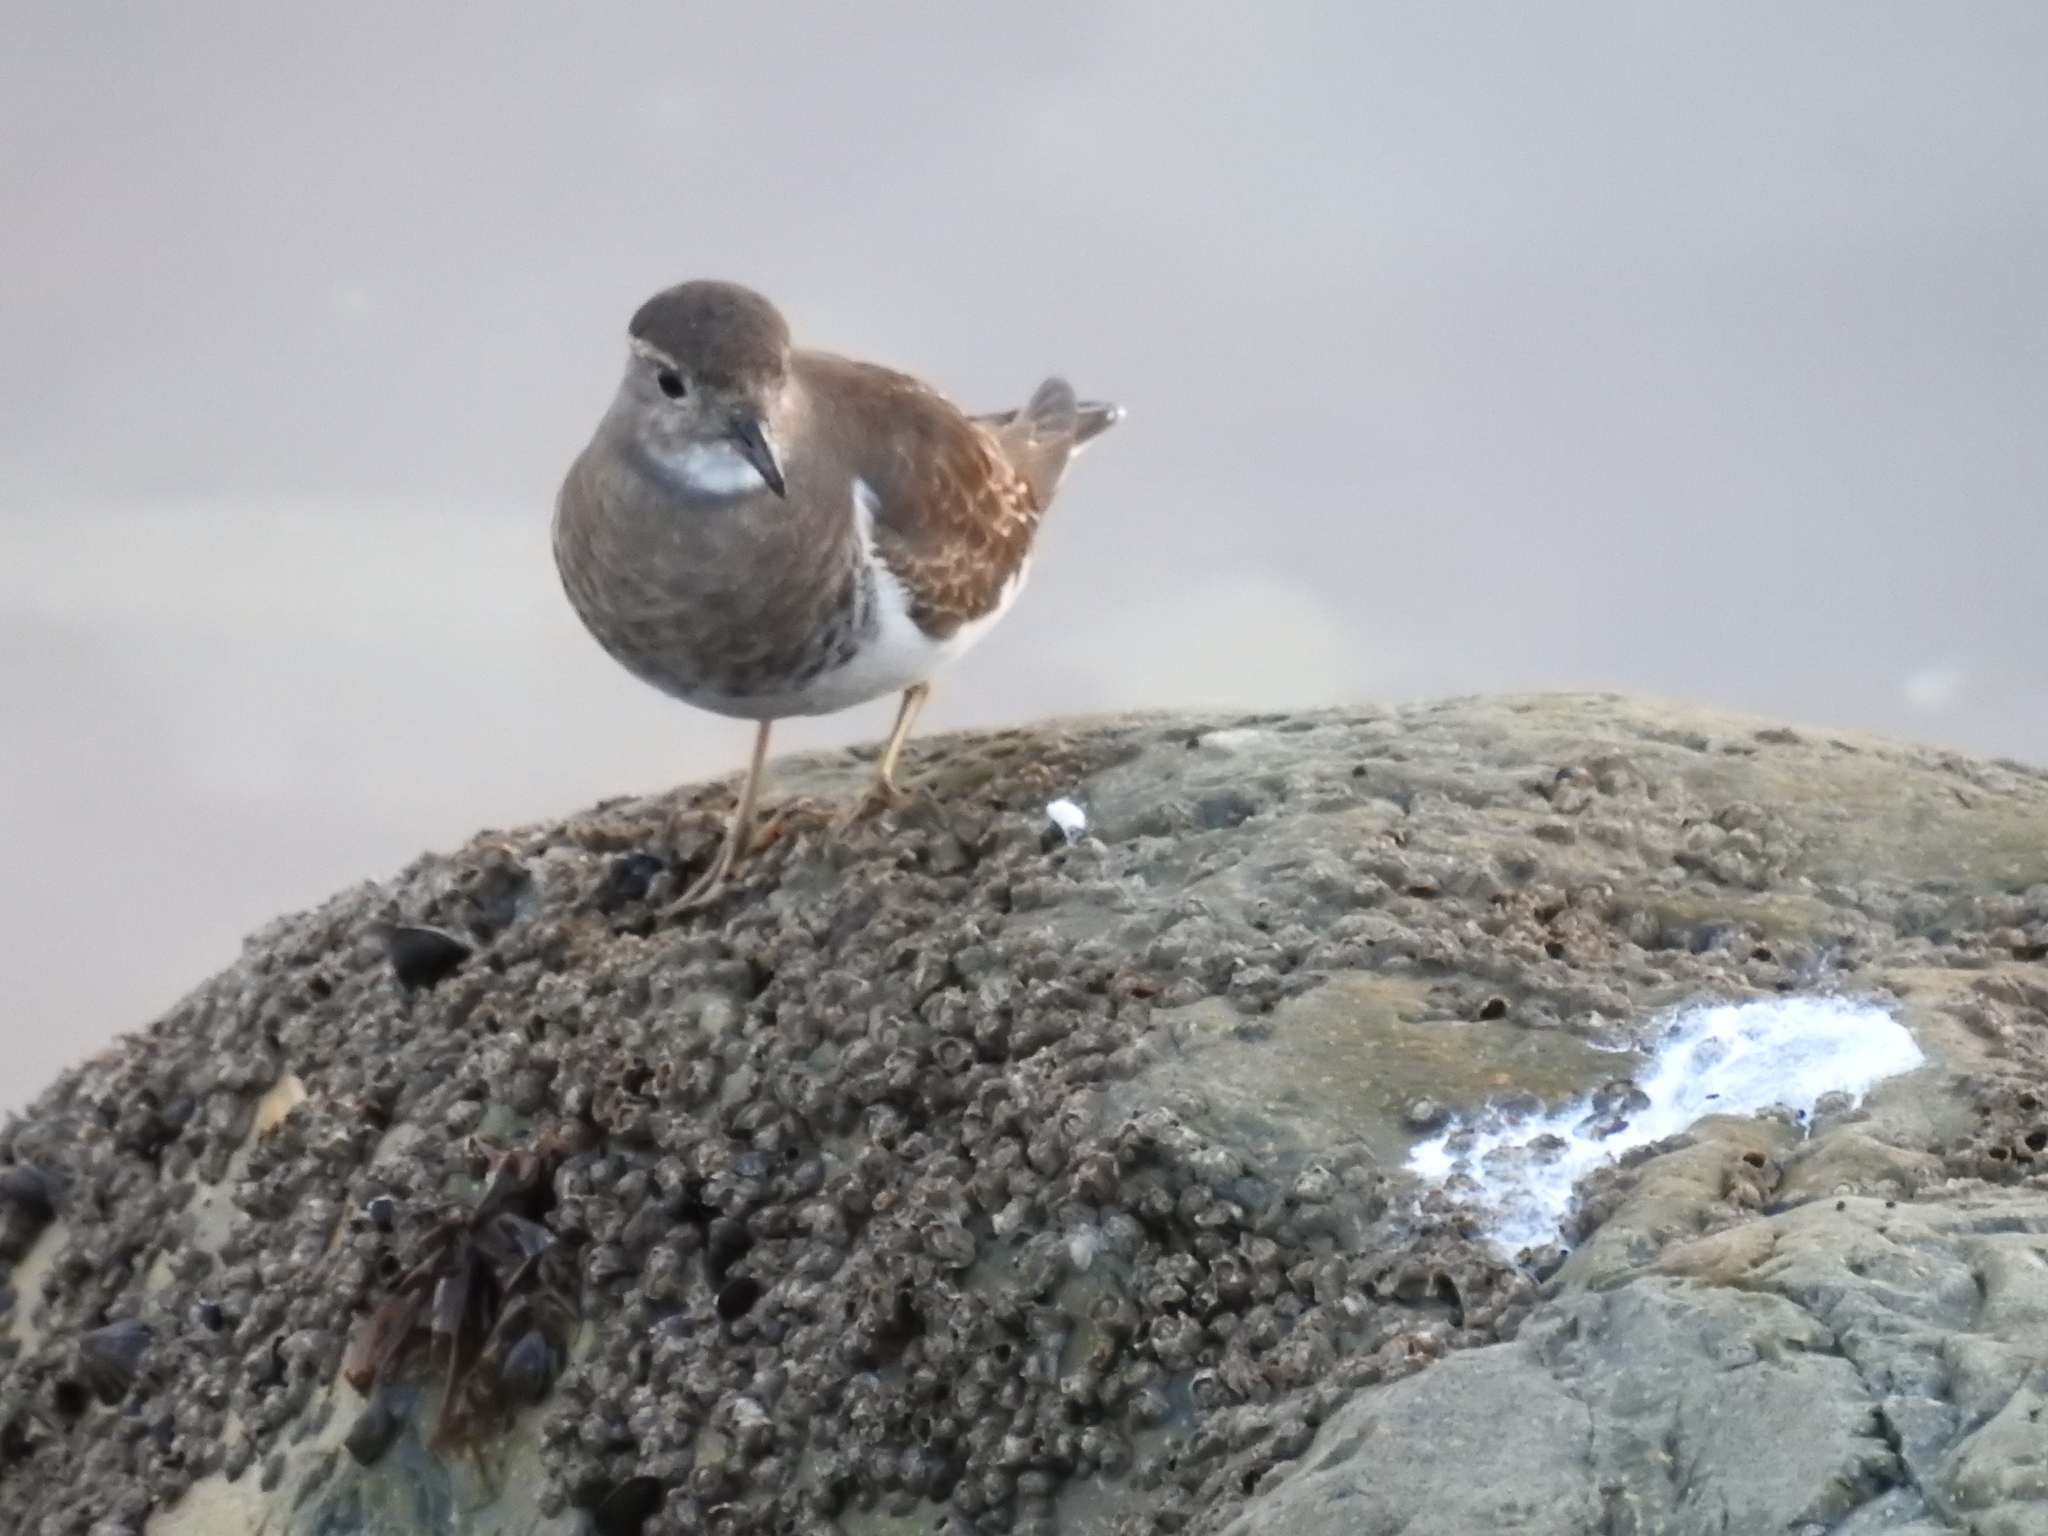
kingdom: Animalia
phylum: Chordata
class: Aves
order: Charadriiformes
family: Charadriidae
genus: Charadrius
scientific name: Charadrius modestus
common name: Rufous-chested plover
